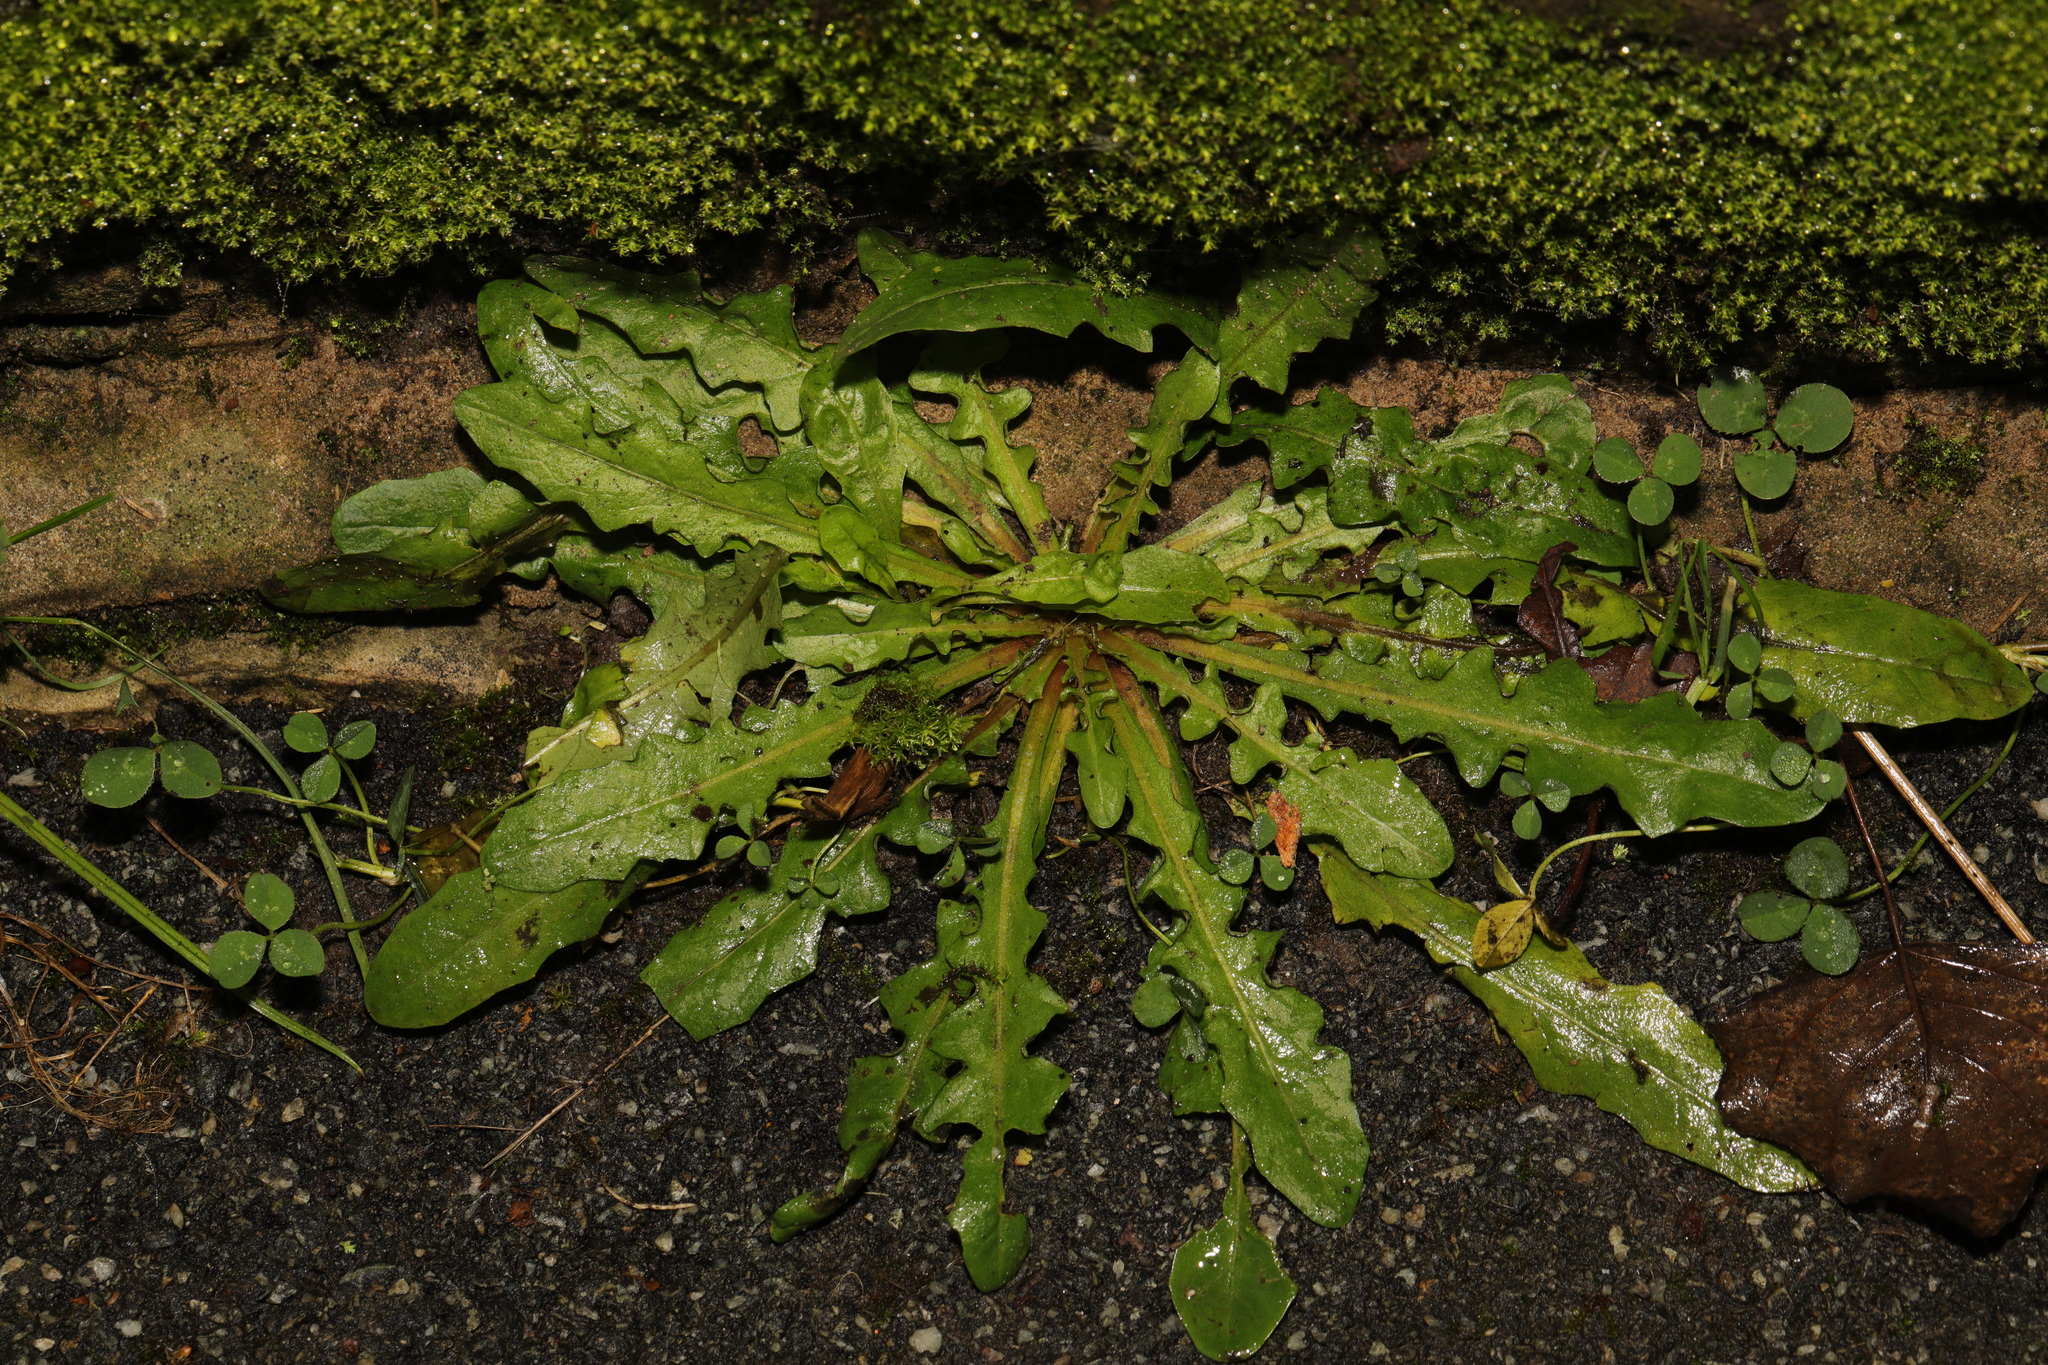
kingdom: Plantae
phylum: Tracheophyta
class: Magnoliopsida
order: Asterales
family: Asteraceae
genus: Hypochaeris
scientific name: Hypochaeris radicata
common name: Flatweed
